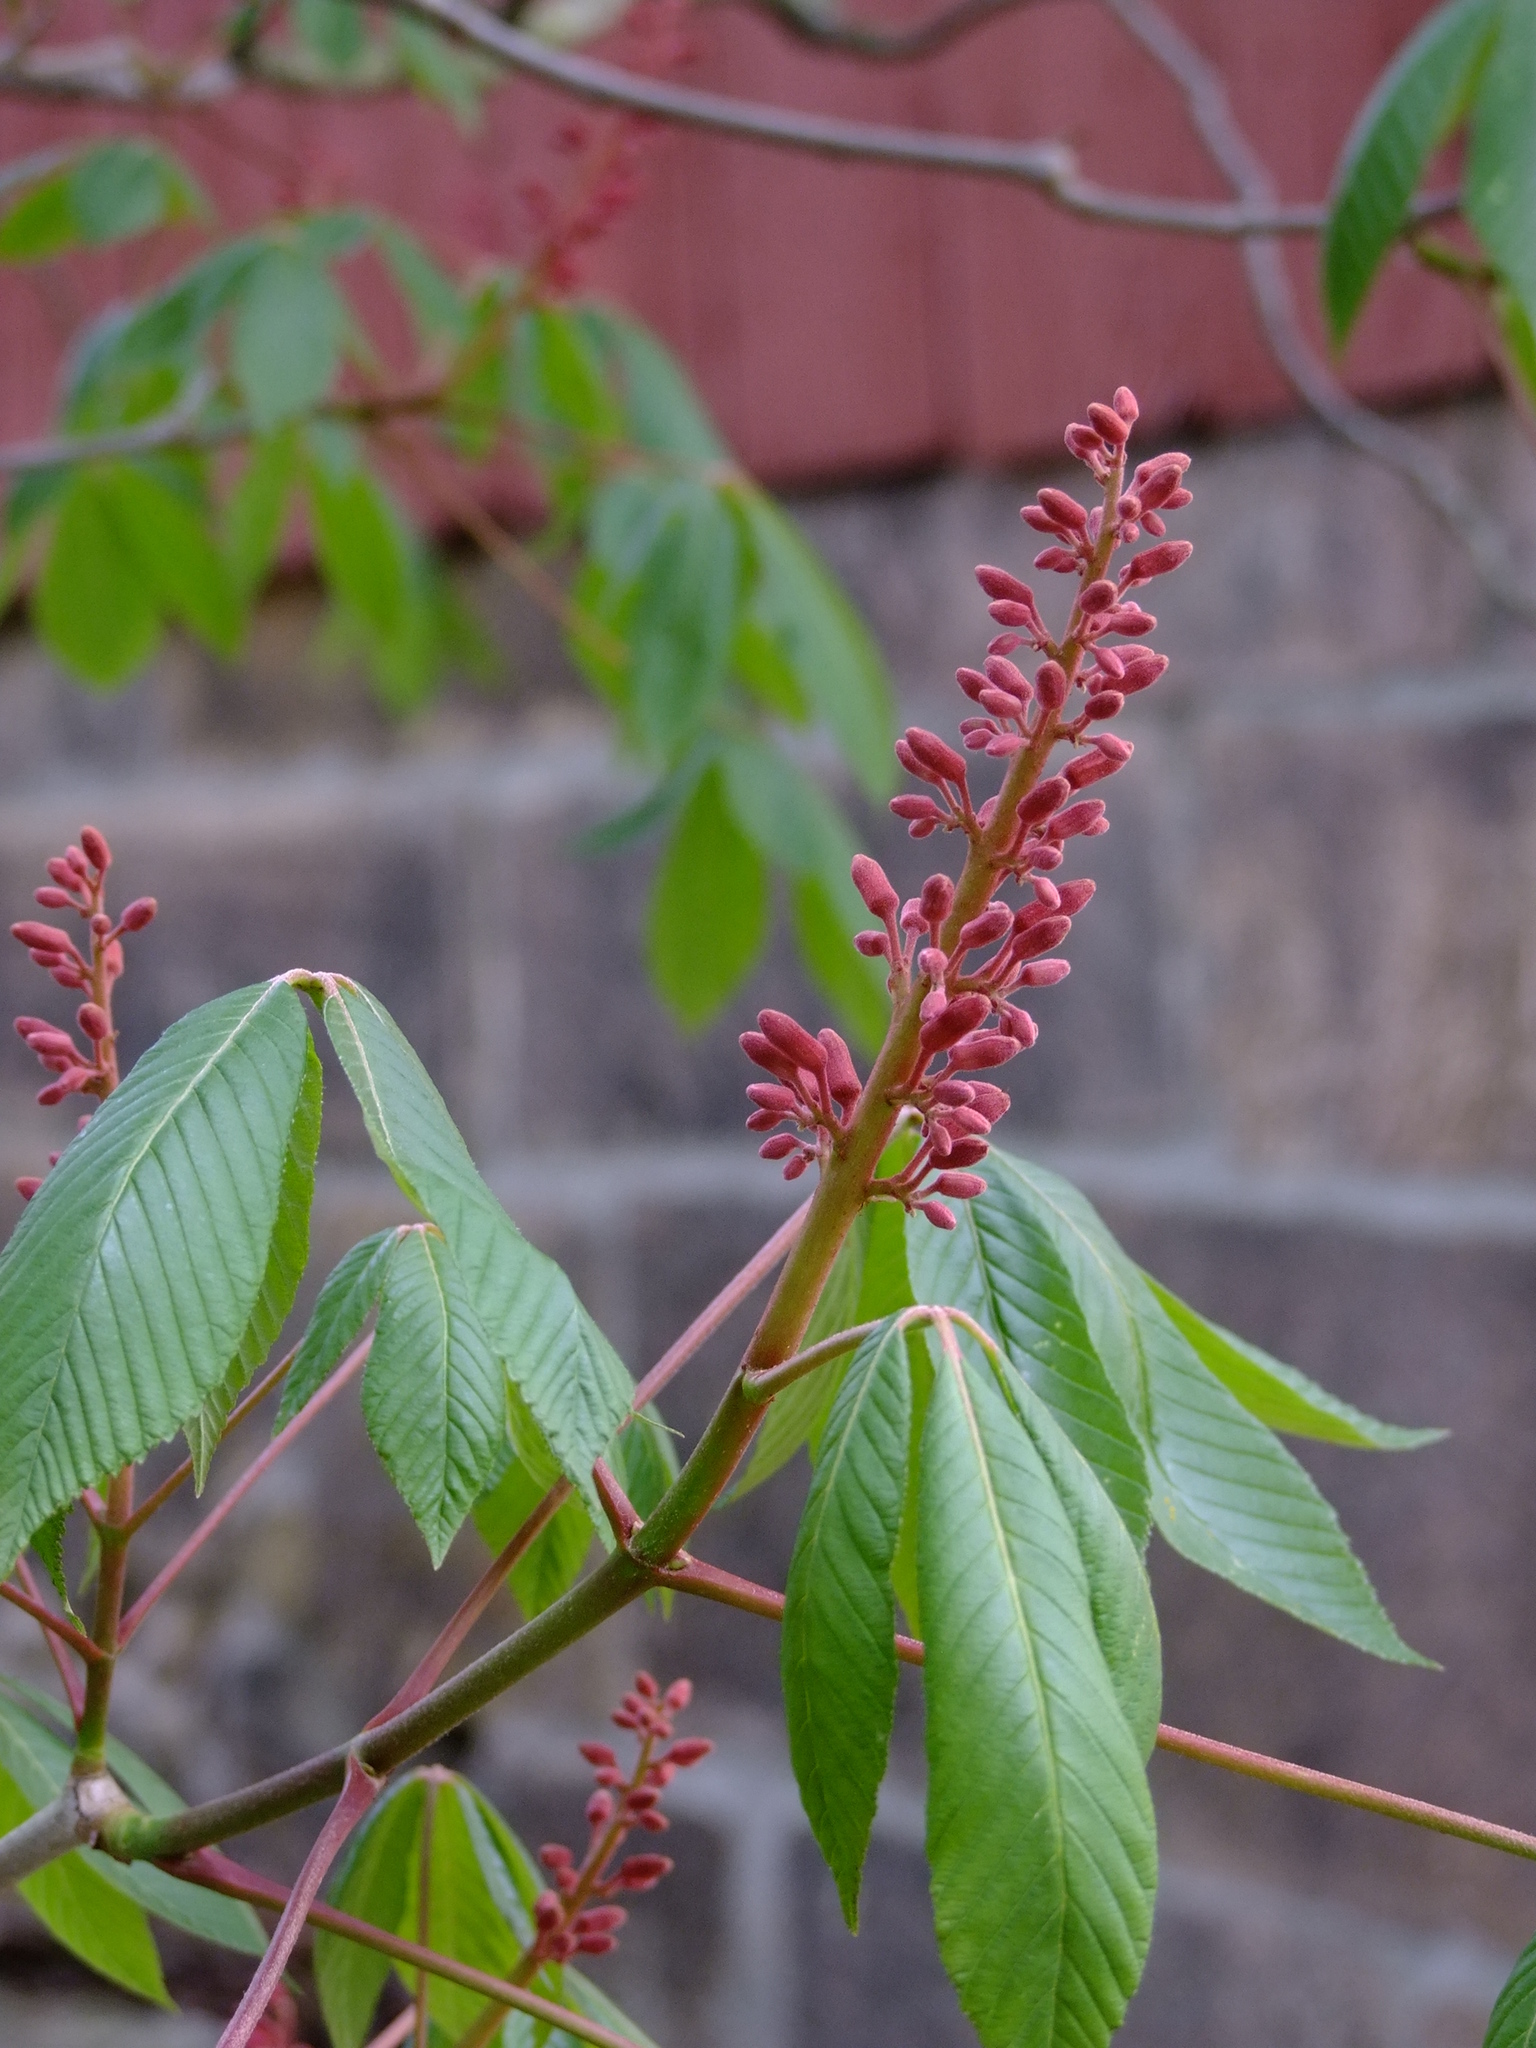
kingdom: Plantae
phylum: Tracheophyta
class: Magnoliopsida
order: Sapindales
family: Sapindaceae
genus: Aesculus
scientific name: Aesculus pavia
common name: Red buckeye
